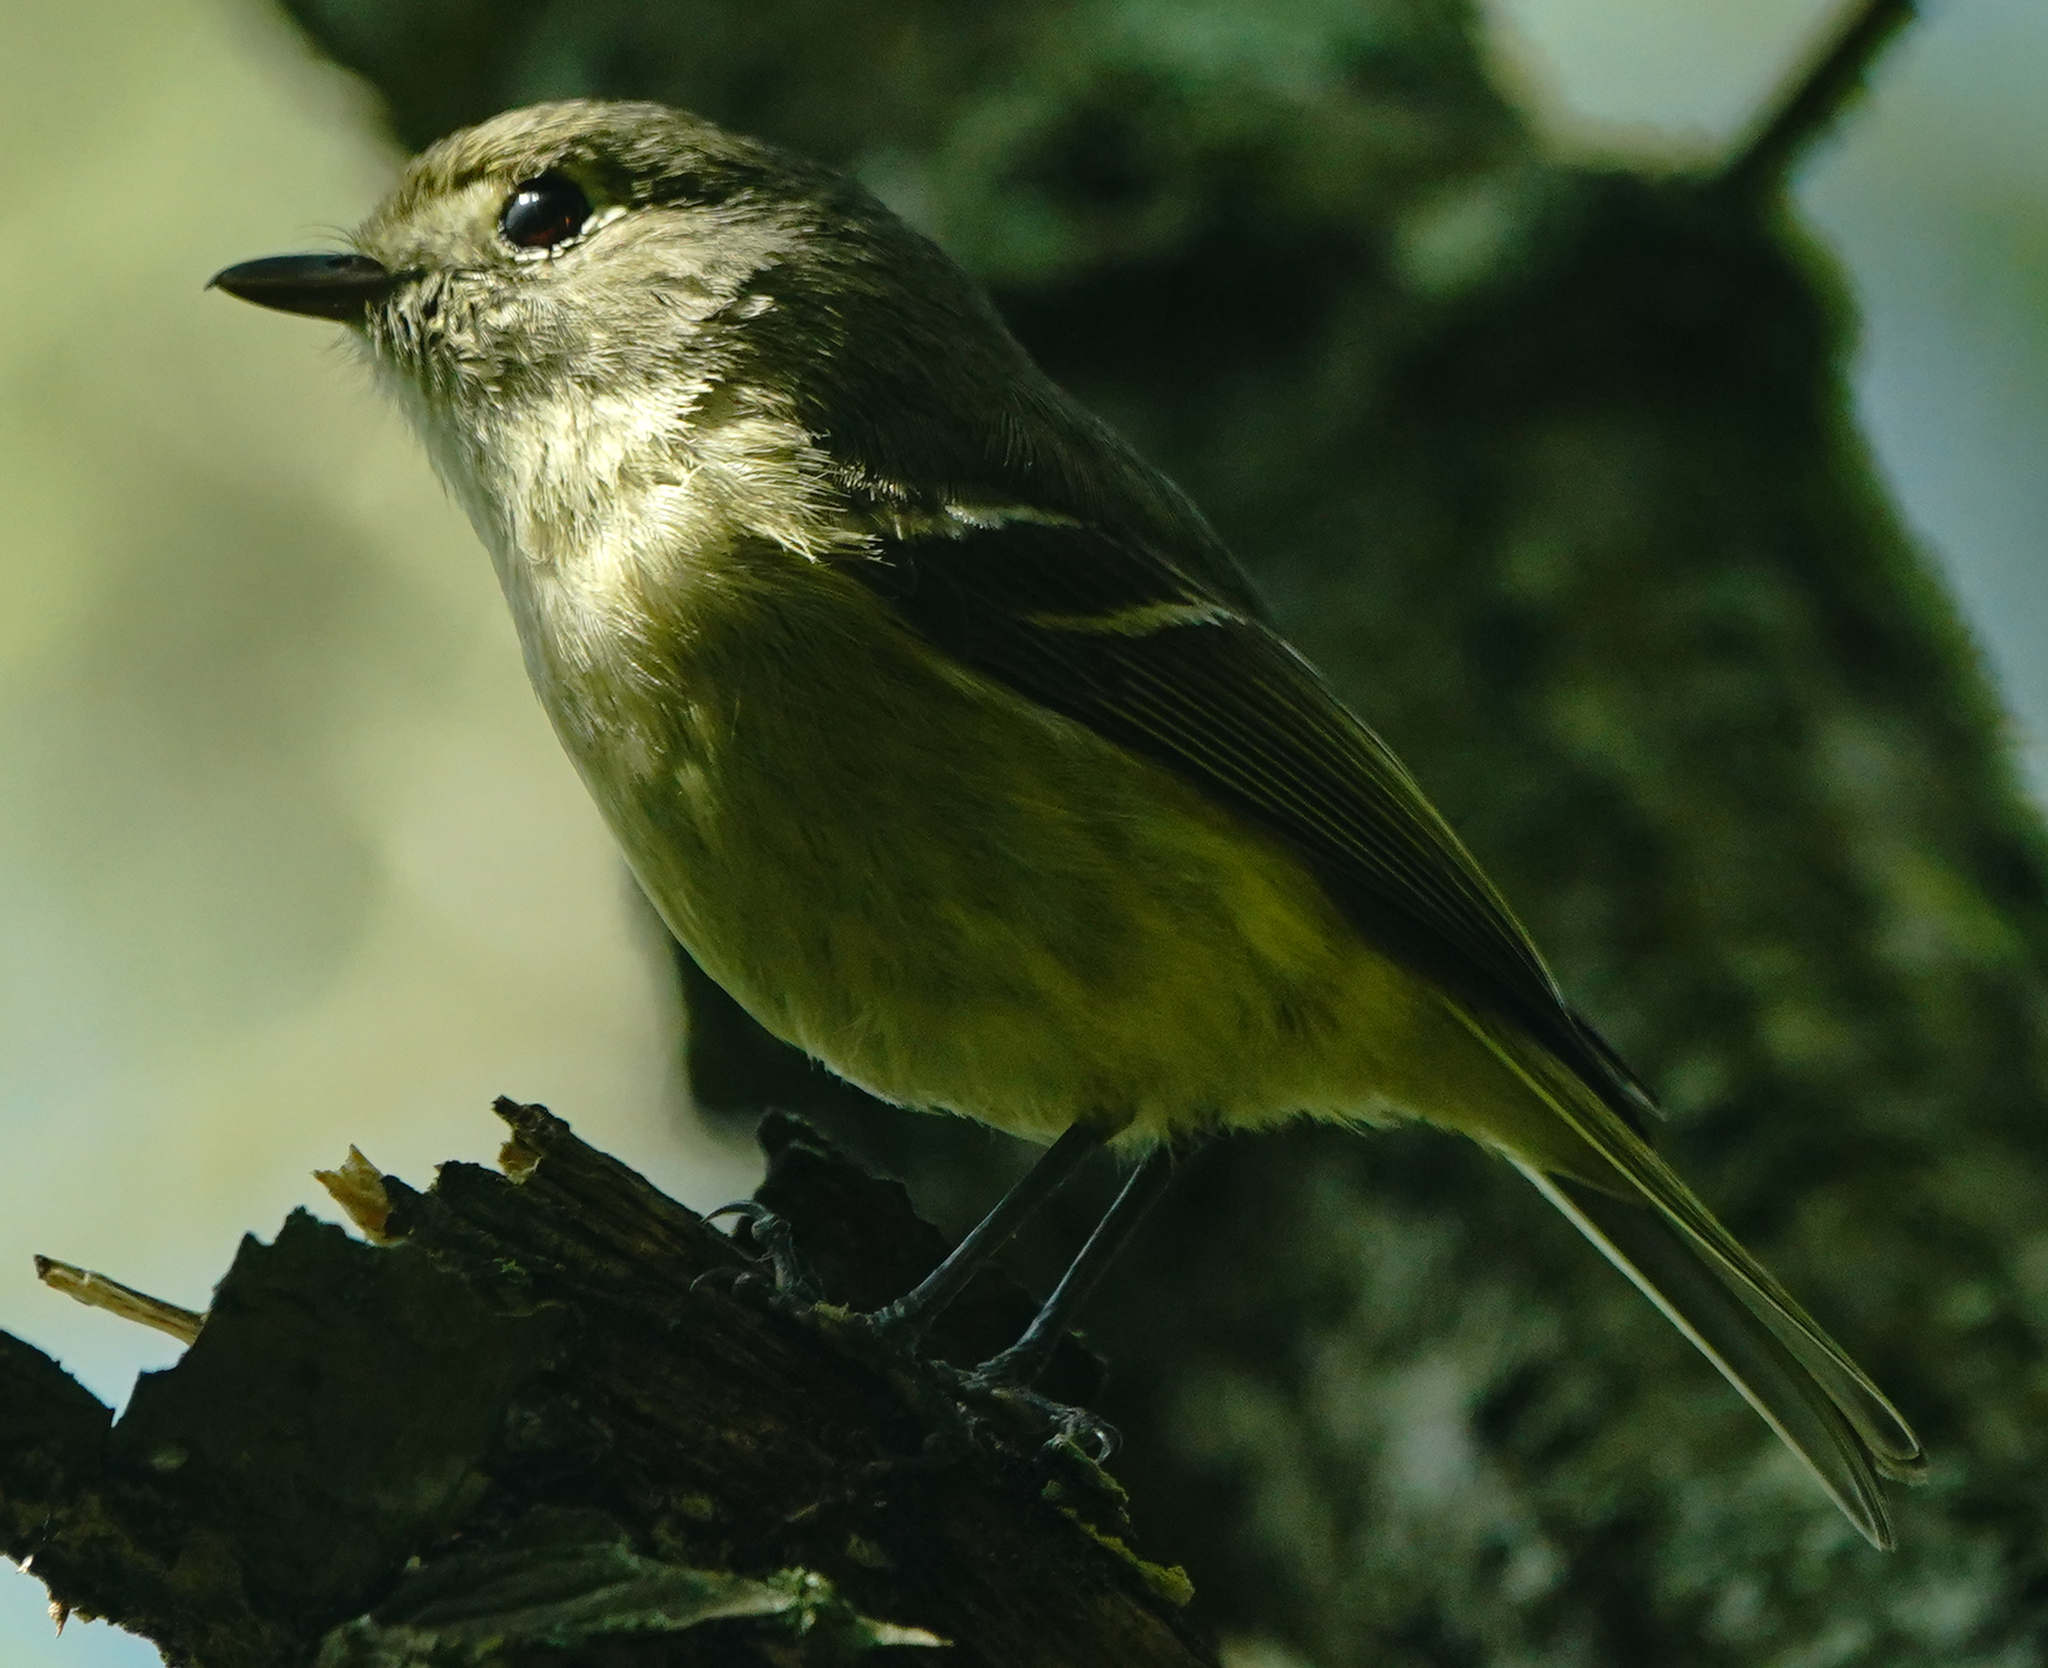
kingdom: Animalia
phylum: Chordata
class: Aves
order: Passeriformes
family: Vireonidae
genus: Vireo
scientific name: Vireo huttoni
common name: Hutton's vireo
